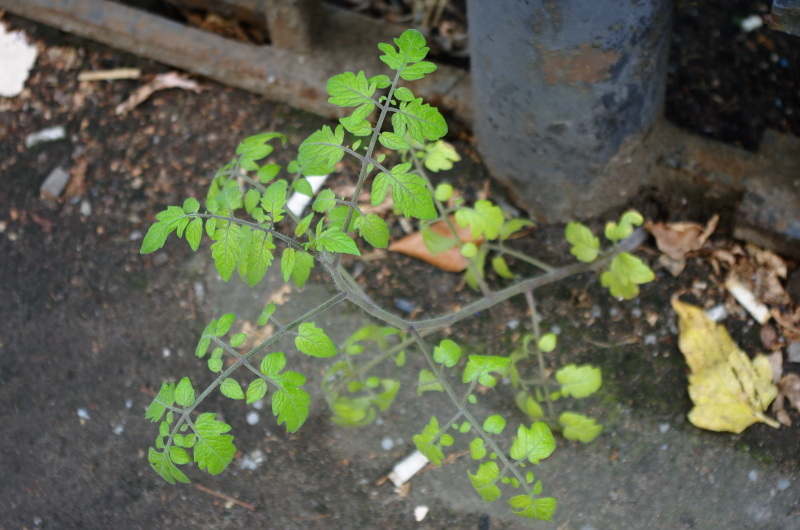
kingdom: Plantae
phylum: Tracheophyta
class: Magnoliopsida
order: Solanales
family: Solanaceae
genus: Solanum
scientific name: Solanum lycopersicum
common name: Garden tomato
